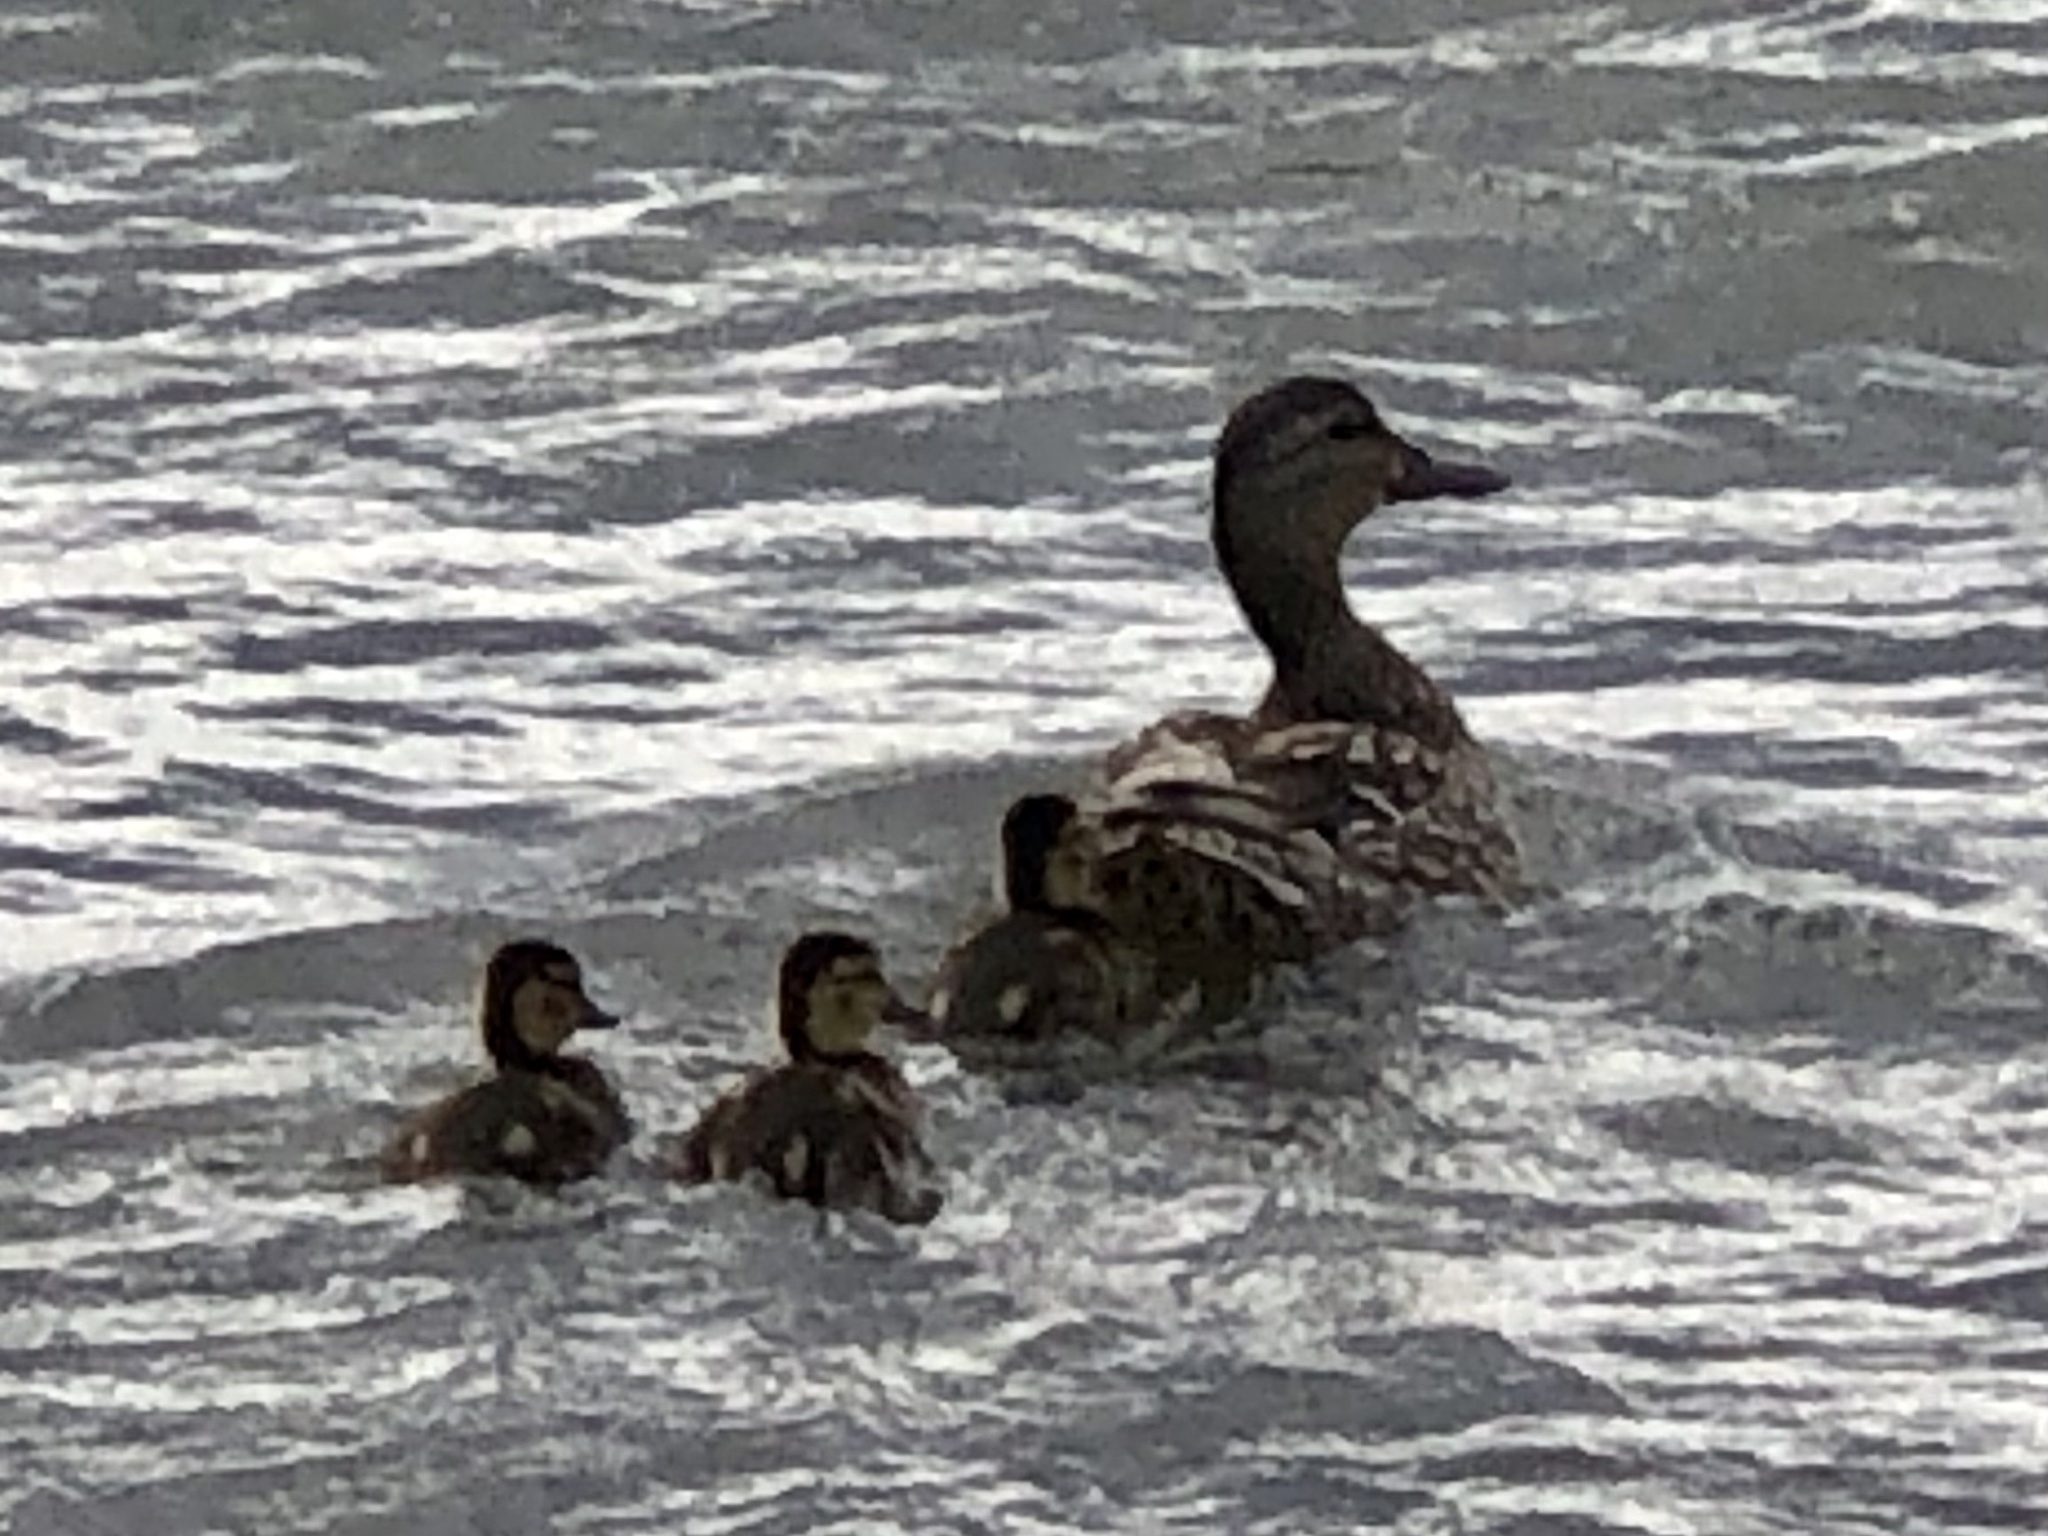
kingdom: Animalia
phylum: Chordata
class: Aves
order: Anseriformes
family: Anatidae
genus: Anas
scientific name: Anas platyrhynchos
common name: Mallard
